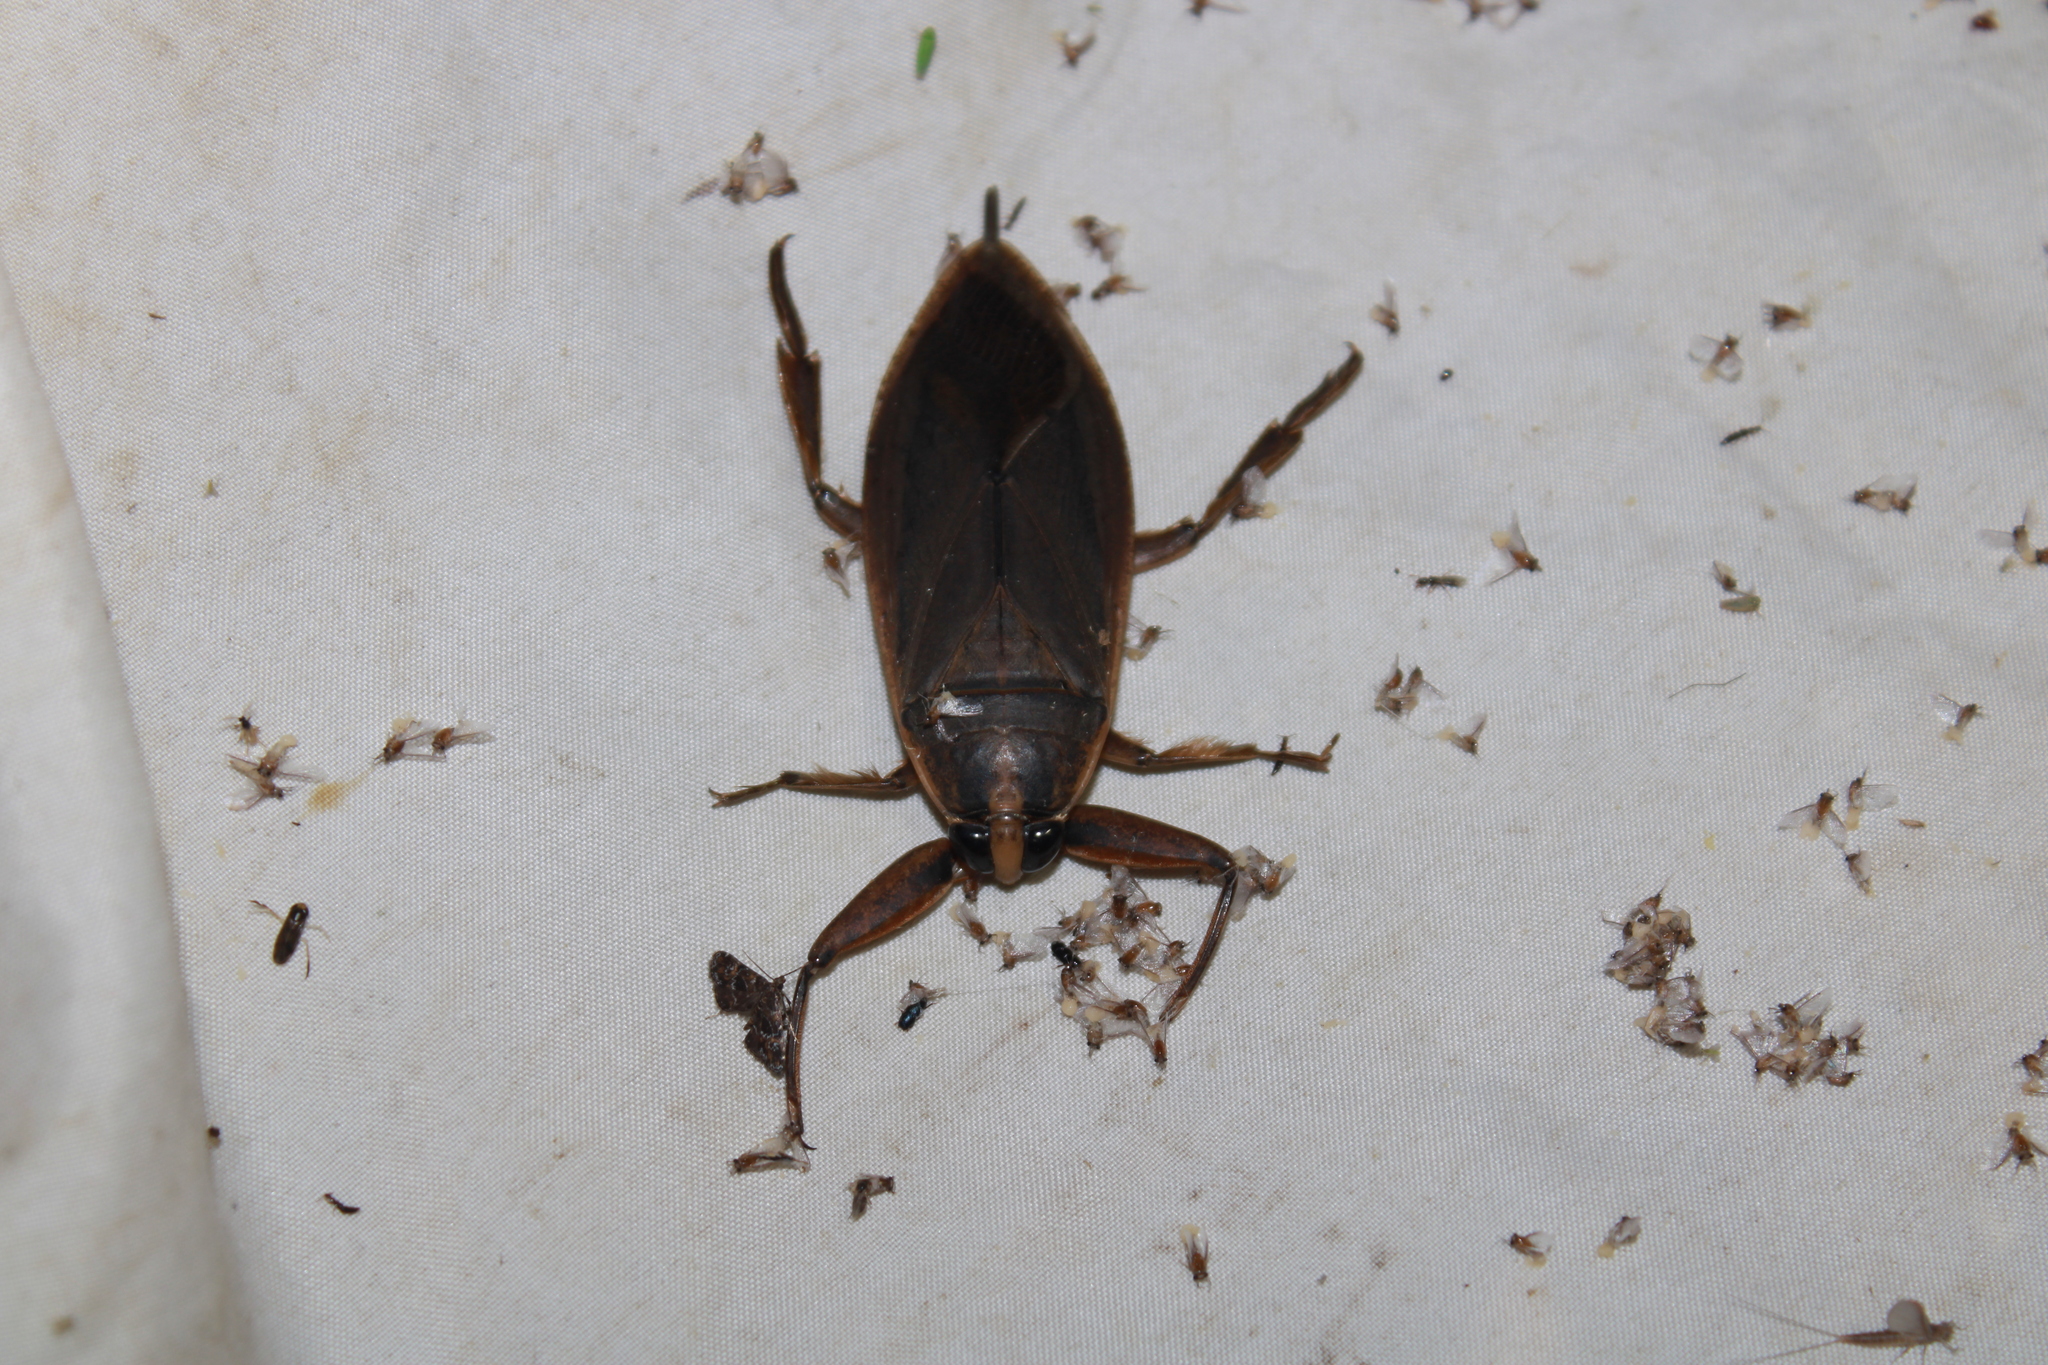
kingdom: Animalia
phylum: Arthropoda
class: Insecta
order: Hemiptera
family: Belostomatidae
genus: Benacus
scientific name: Benacus griseus
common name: Eastern toe-biter
